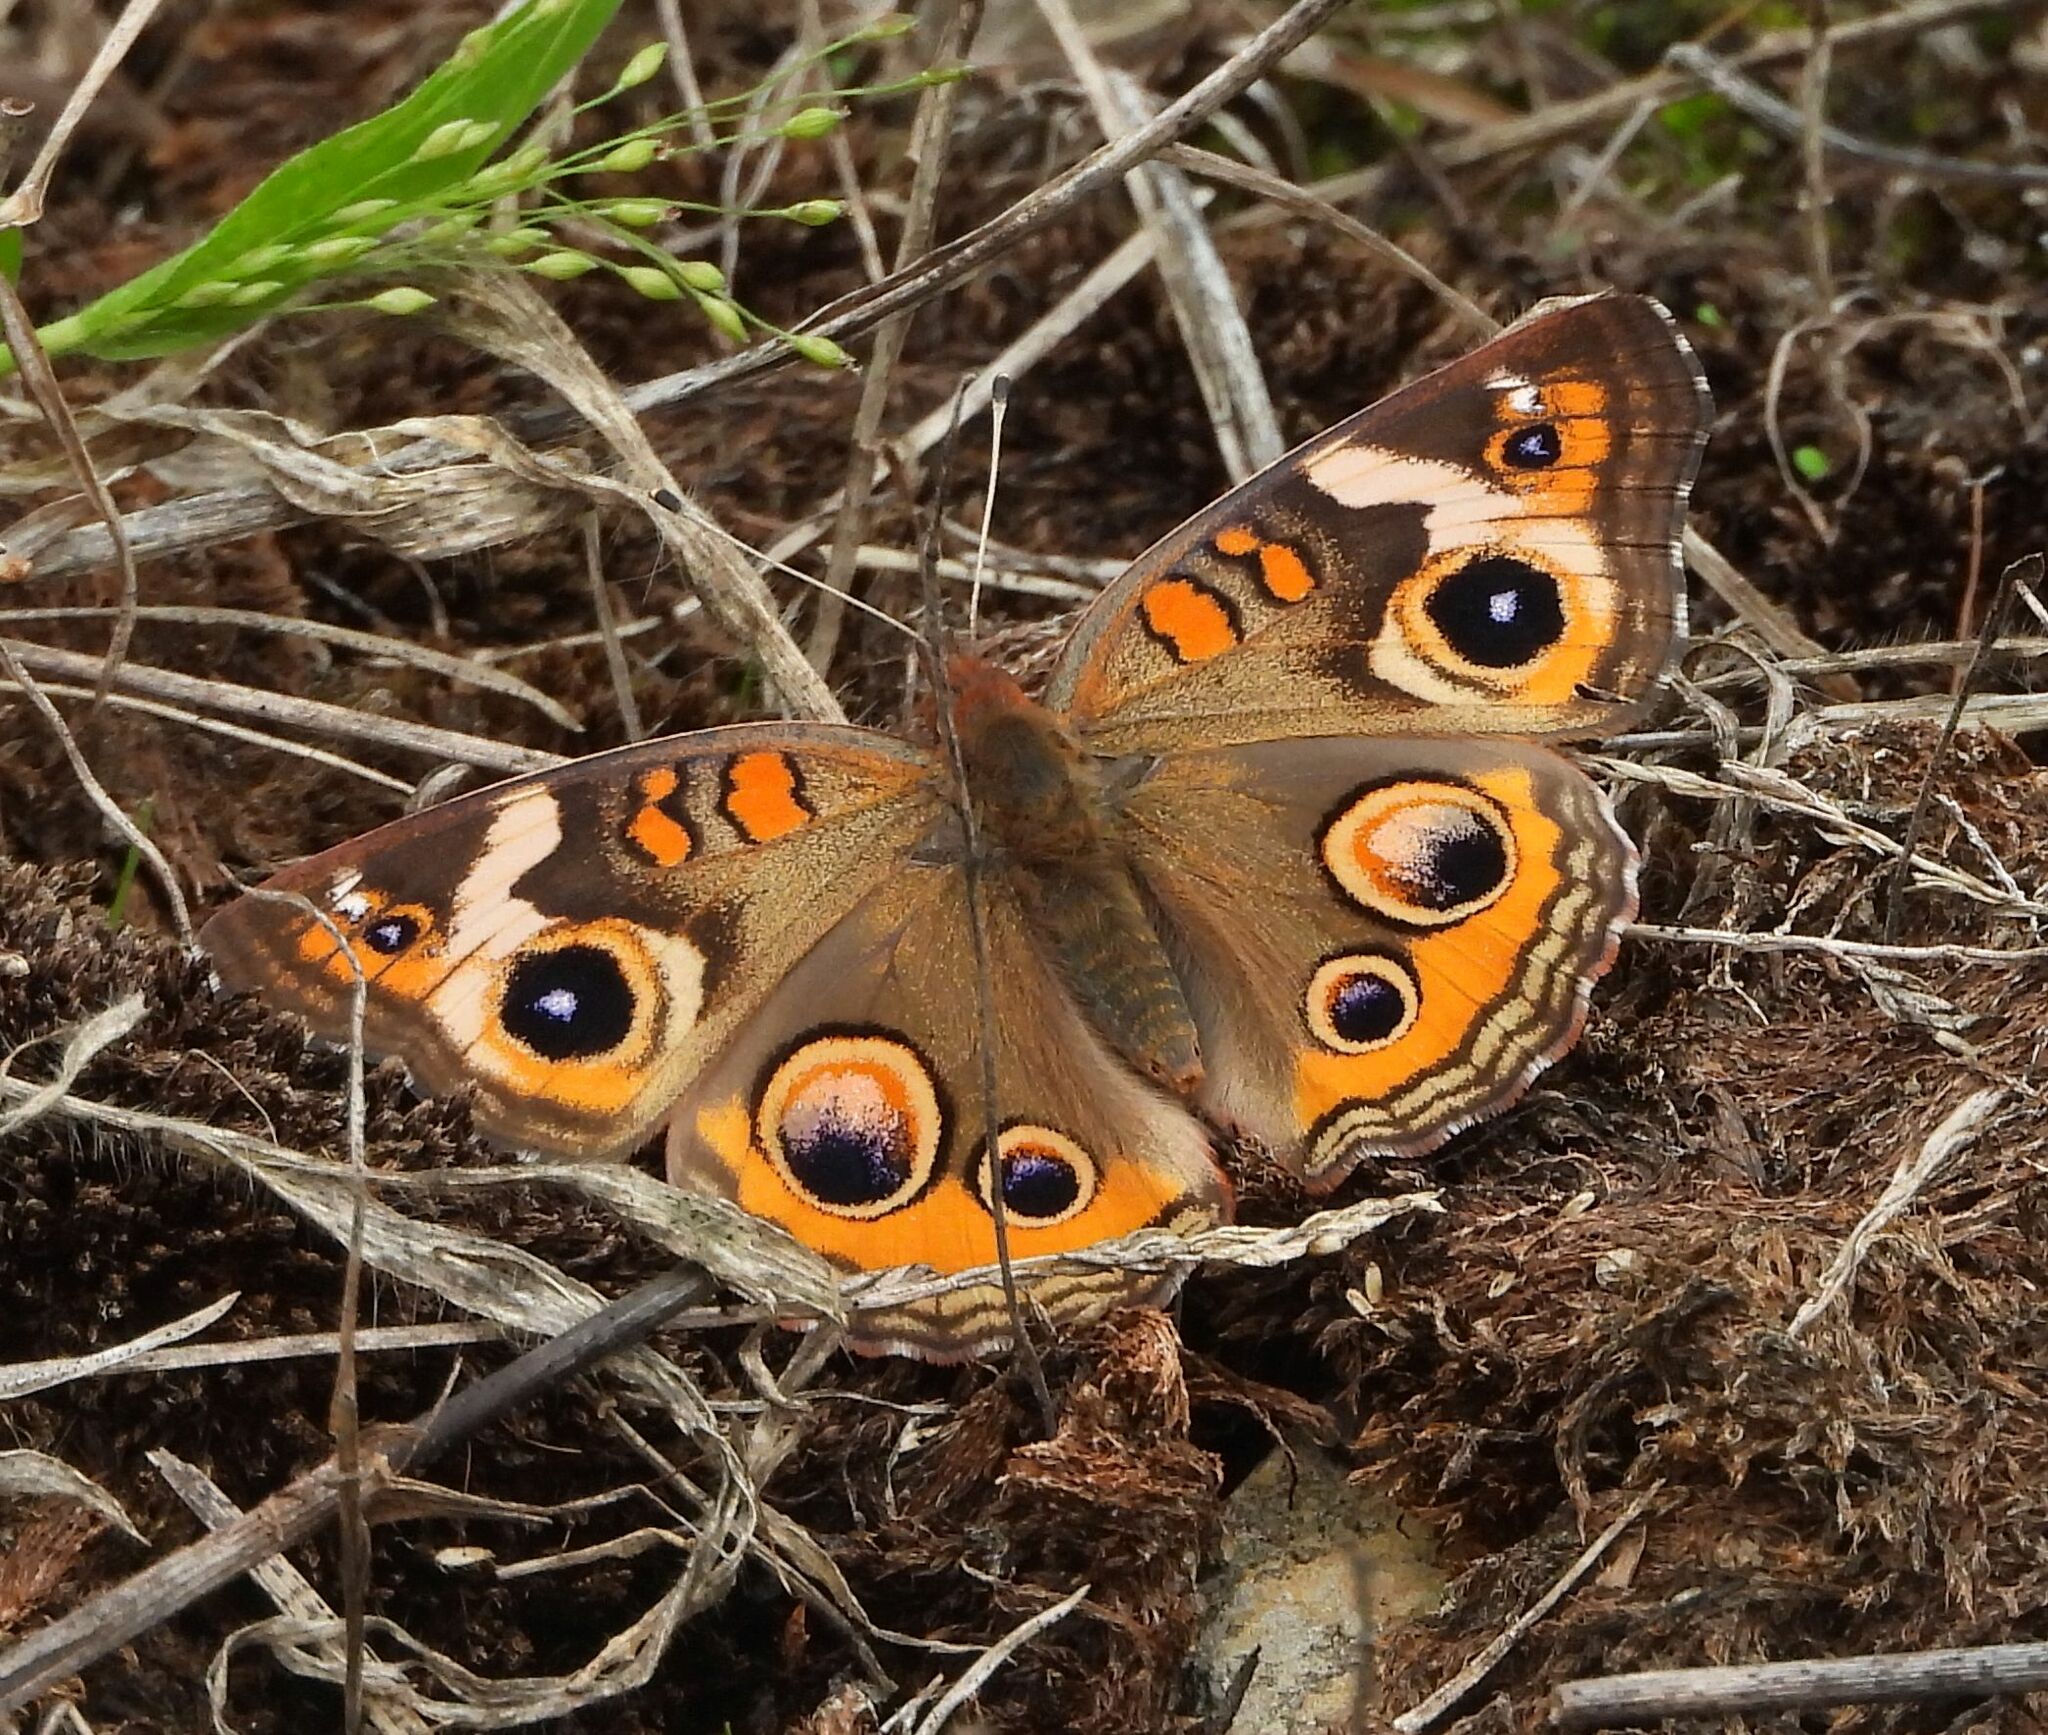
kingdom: Animalia
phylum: Arthropoda
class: Insecta
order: Lepidoptera
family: Nymphalidae
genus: Junonia
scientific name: Junonia coenia
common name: Common buckeye
